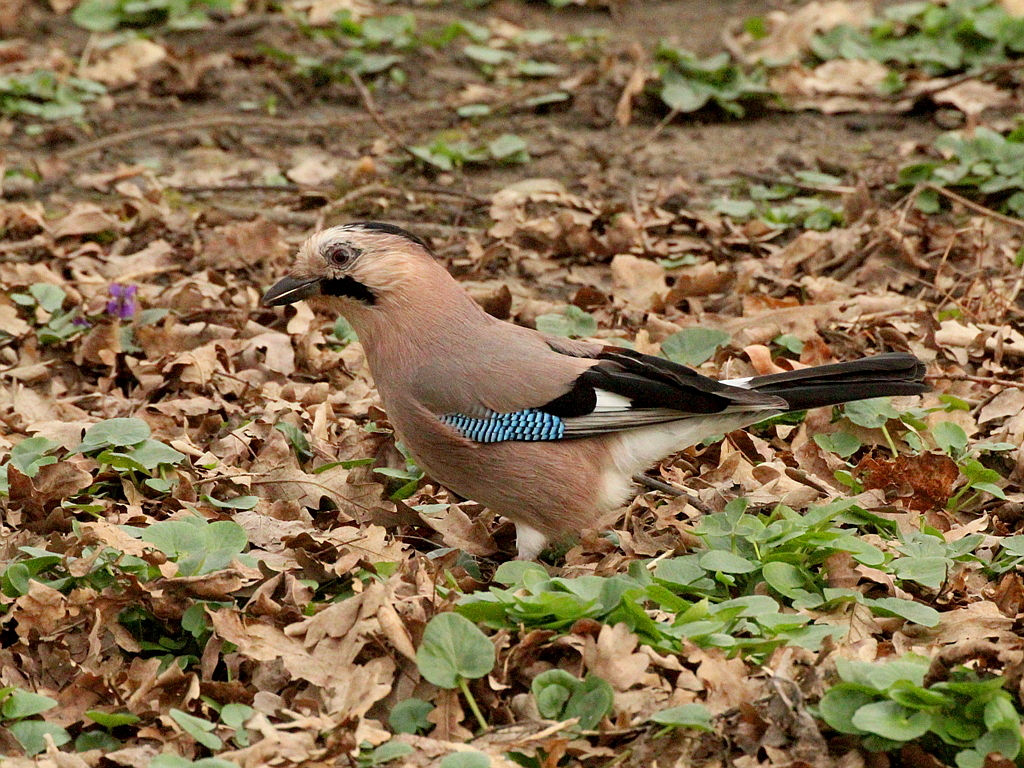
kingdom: Animalia
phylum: Chordata
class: Aves
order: Passeriformes
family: Corvidae
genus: Garrulus
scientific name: Garrulus glandarius
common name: Eurasian jay
